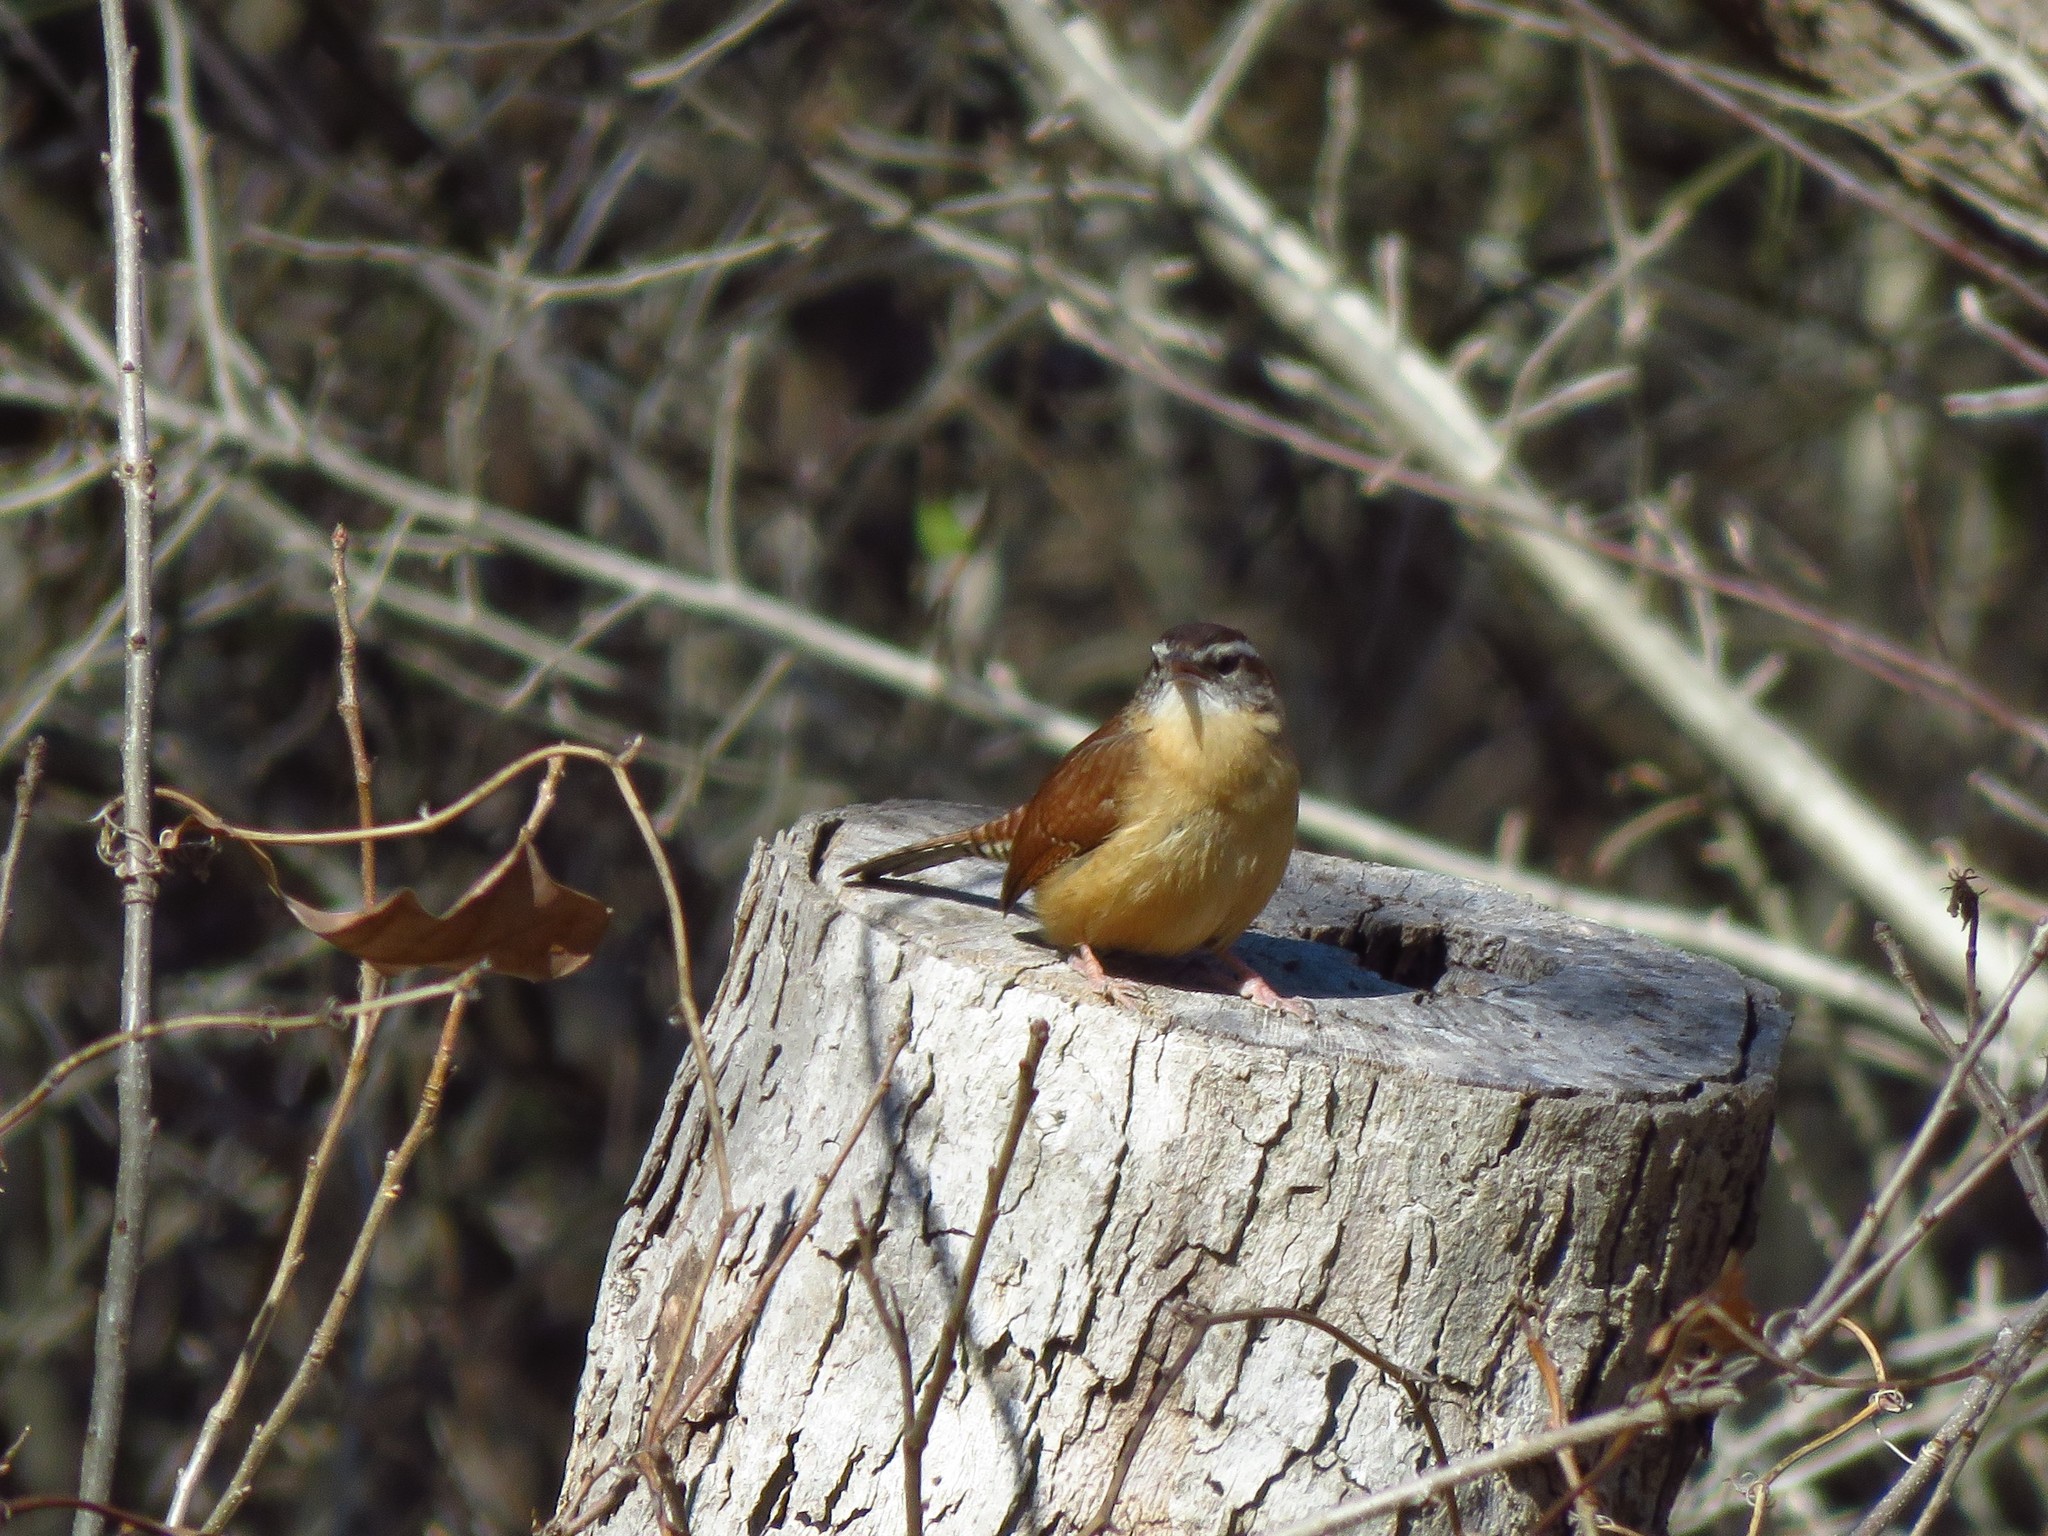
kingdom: Animalia
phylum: Chordata
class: Aves
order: Passeriformes
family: Troglodytidae
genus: Thryothorus
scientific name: Thryothorus ludovicianus
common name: Carolina wren
